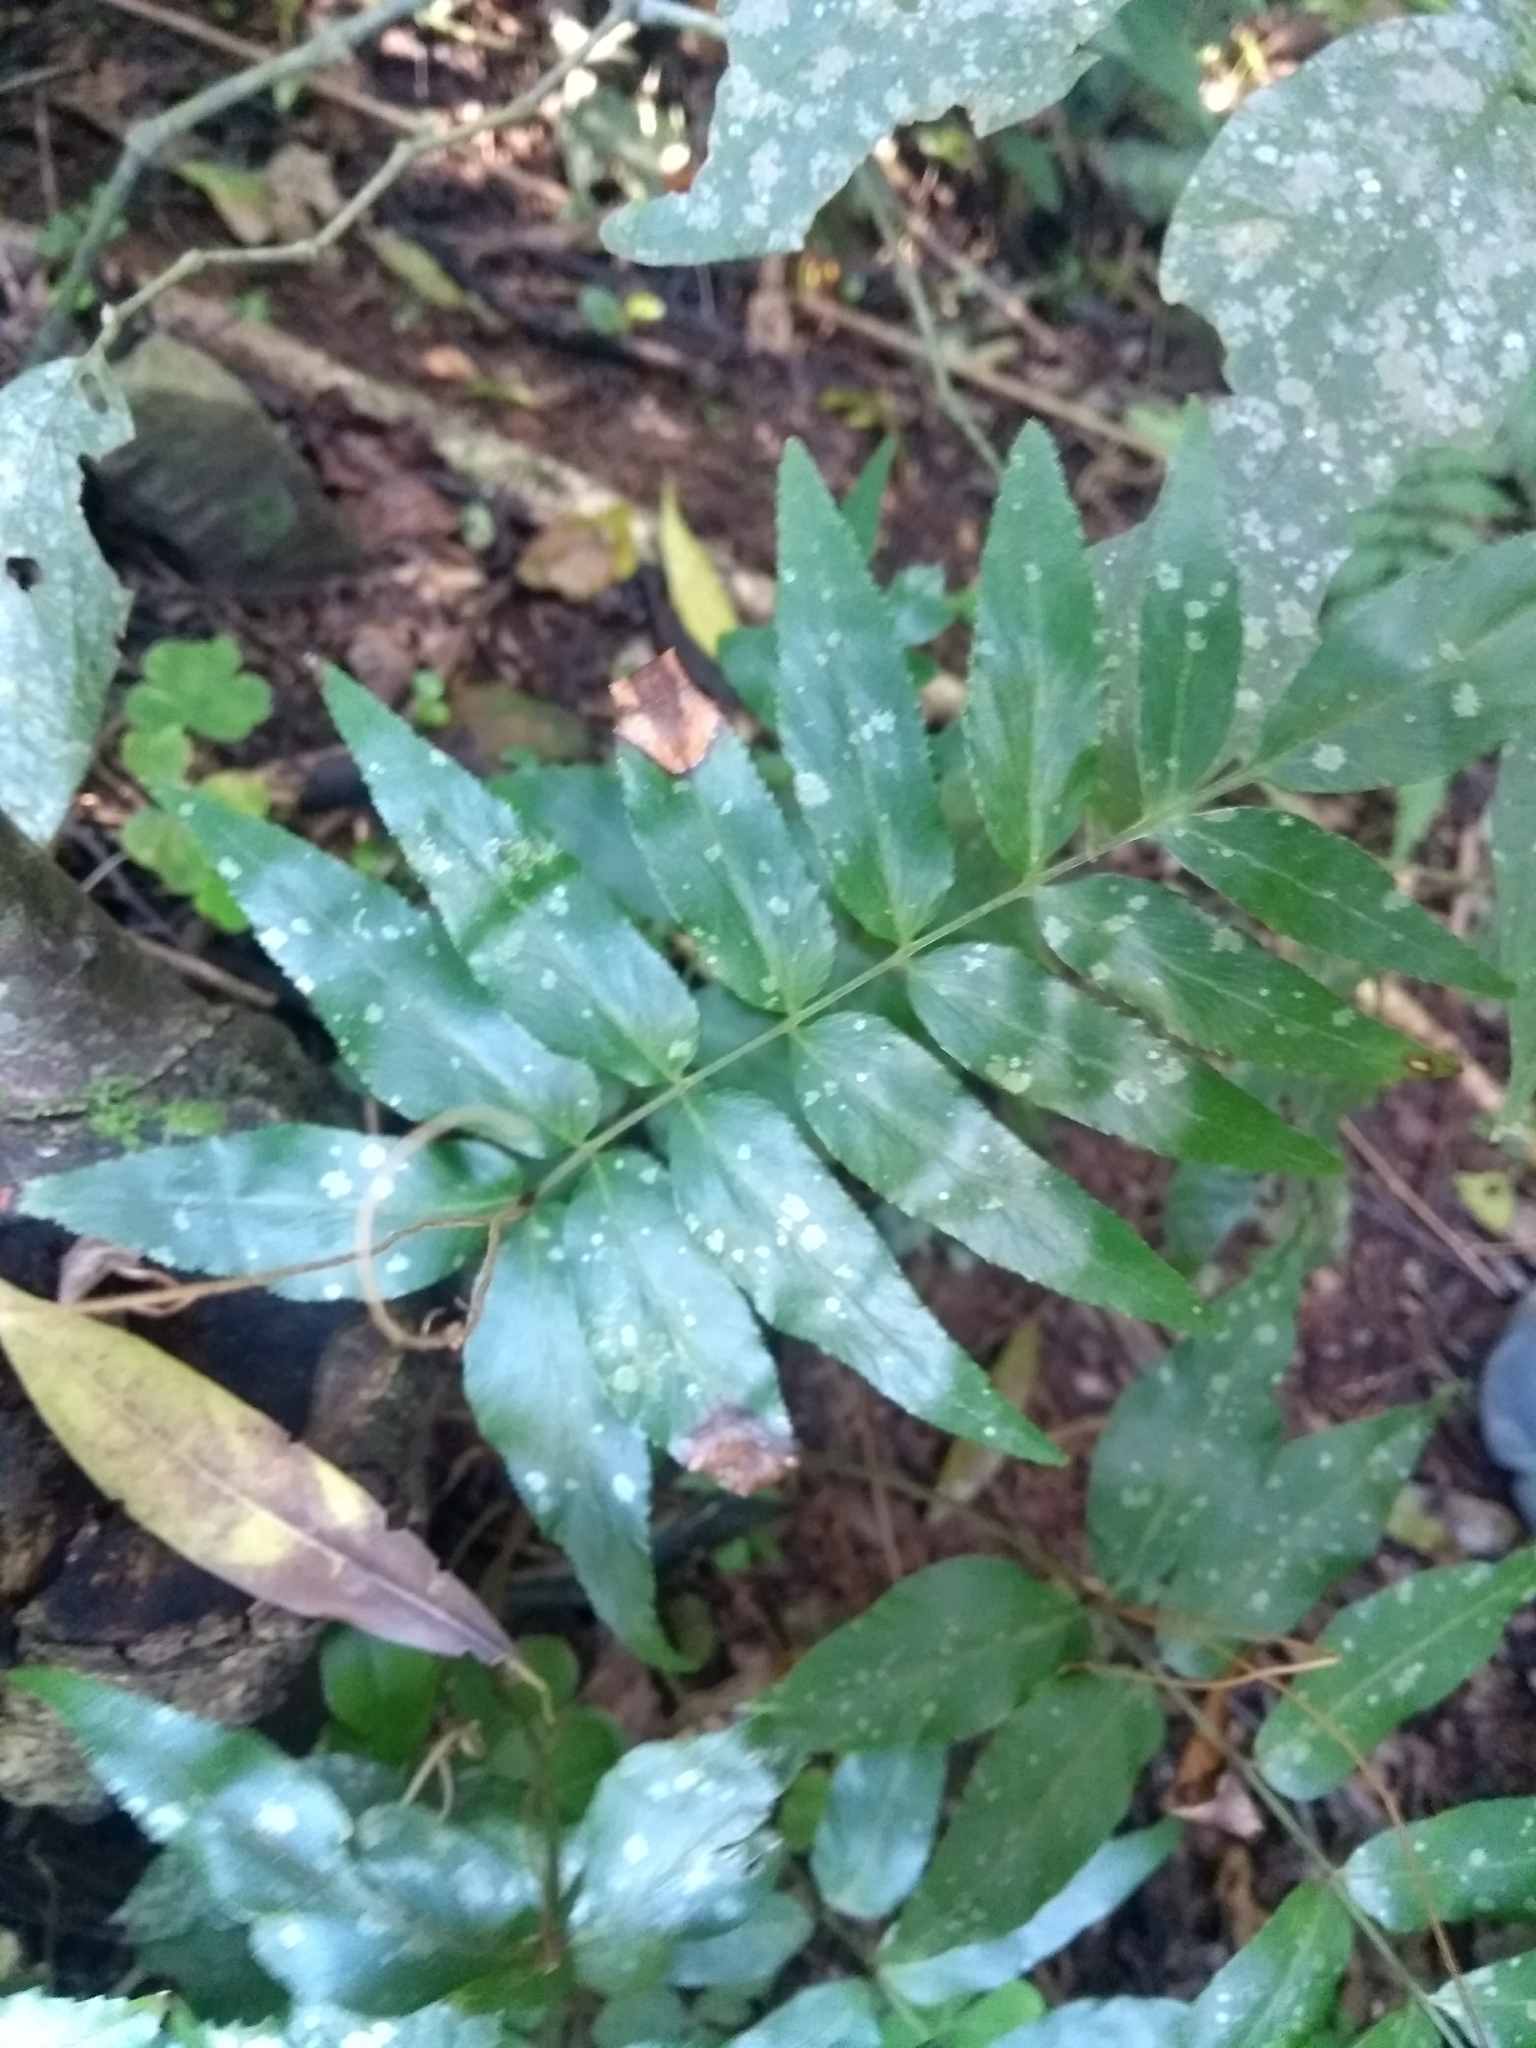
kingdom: Plantae
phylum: Tracheophyta
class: Polypodiopsida
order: Schizaeales
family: Anemiaceae
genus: Anemia
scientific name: Anemia phyllitidis
